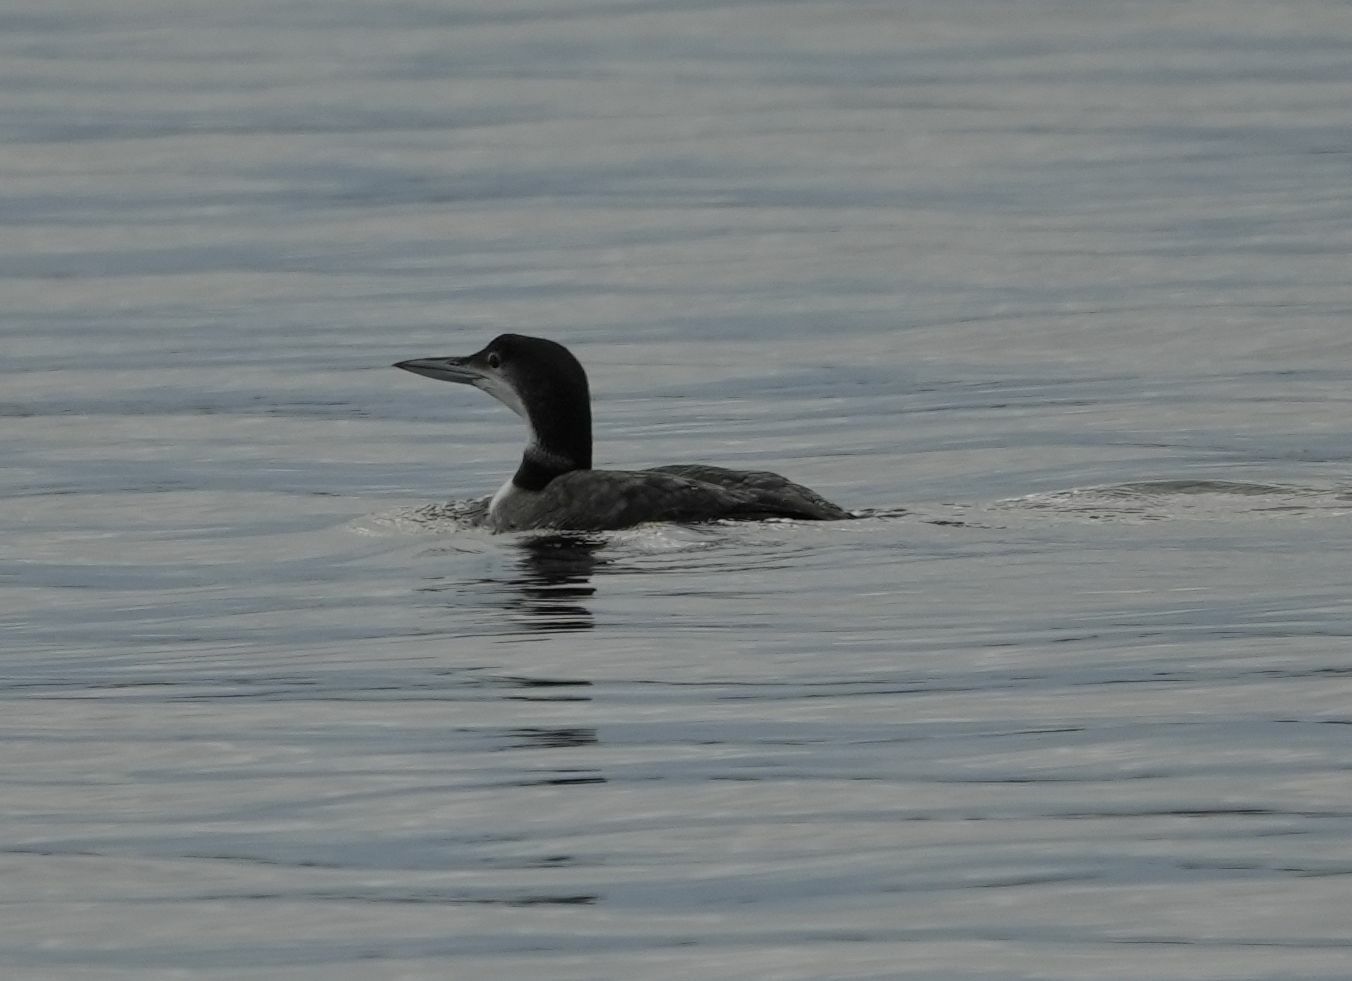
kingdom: Animalia
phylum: Chordata
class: Aves
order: Gaviiformes
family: Gaviidae
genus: Gavia
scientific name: Gavia immer
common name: Common loon
